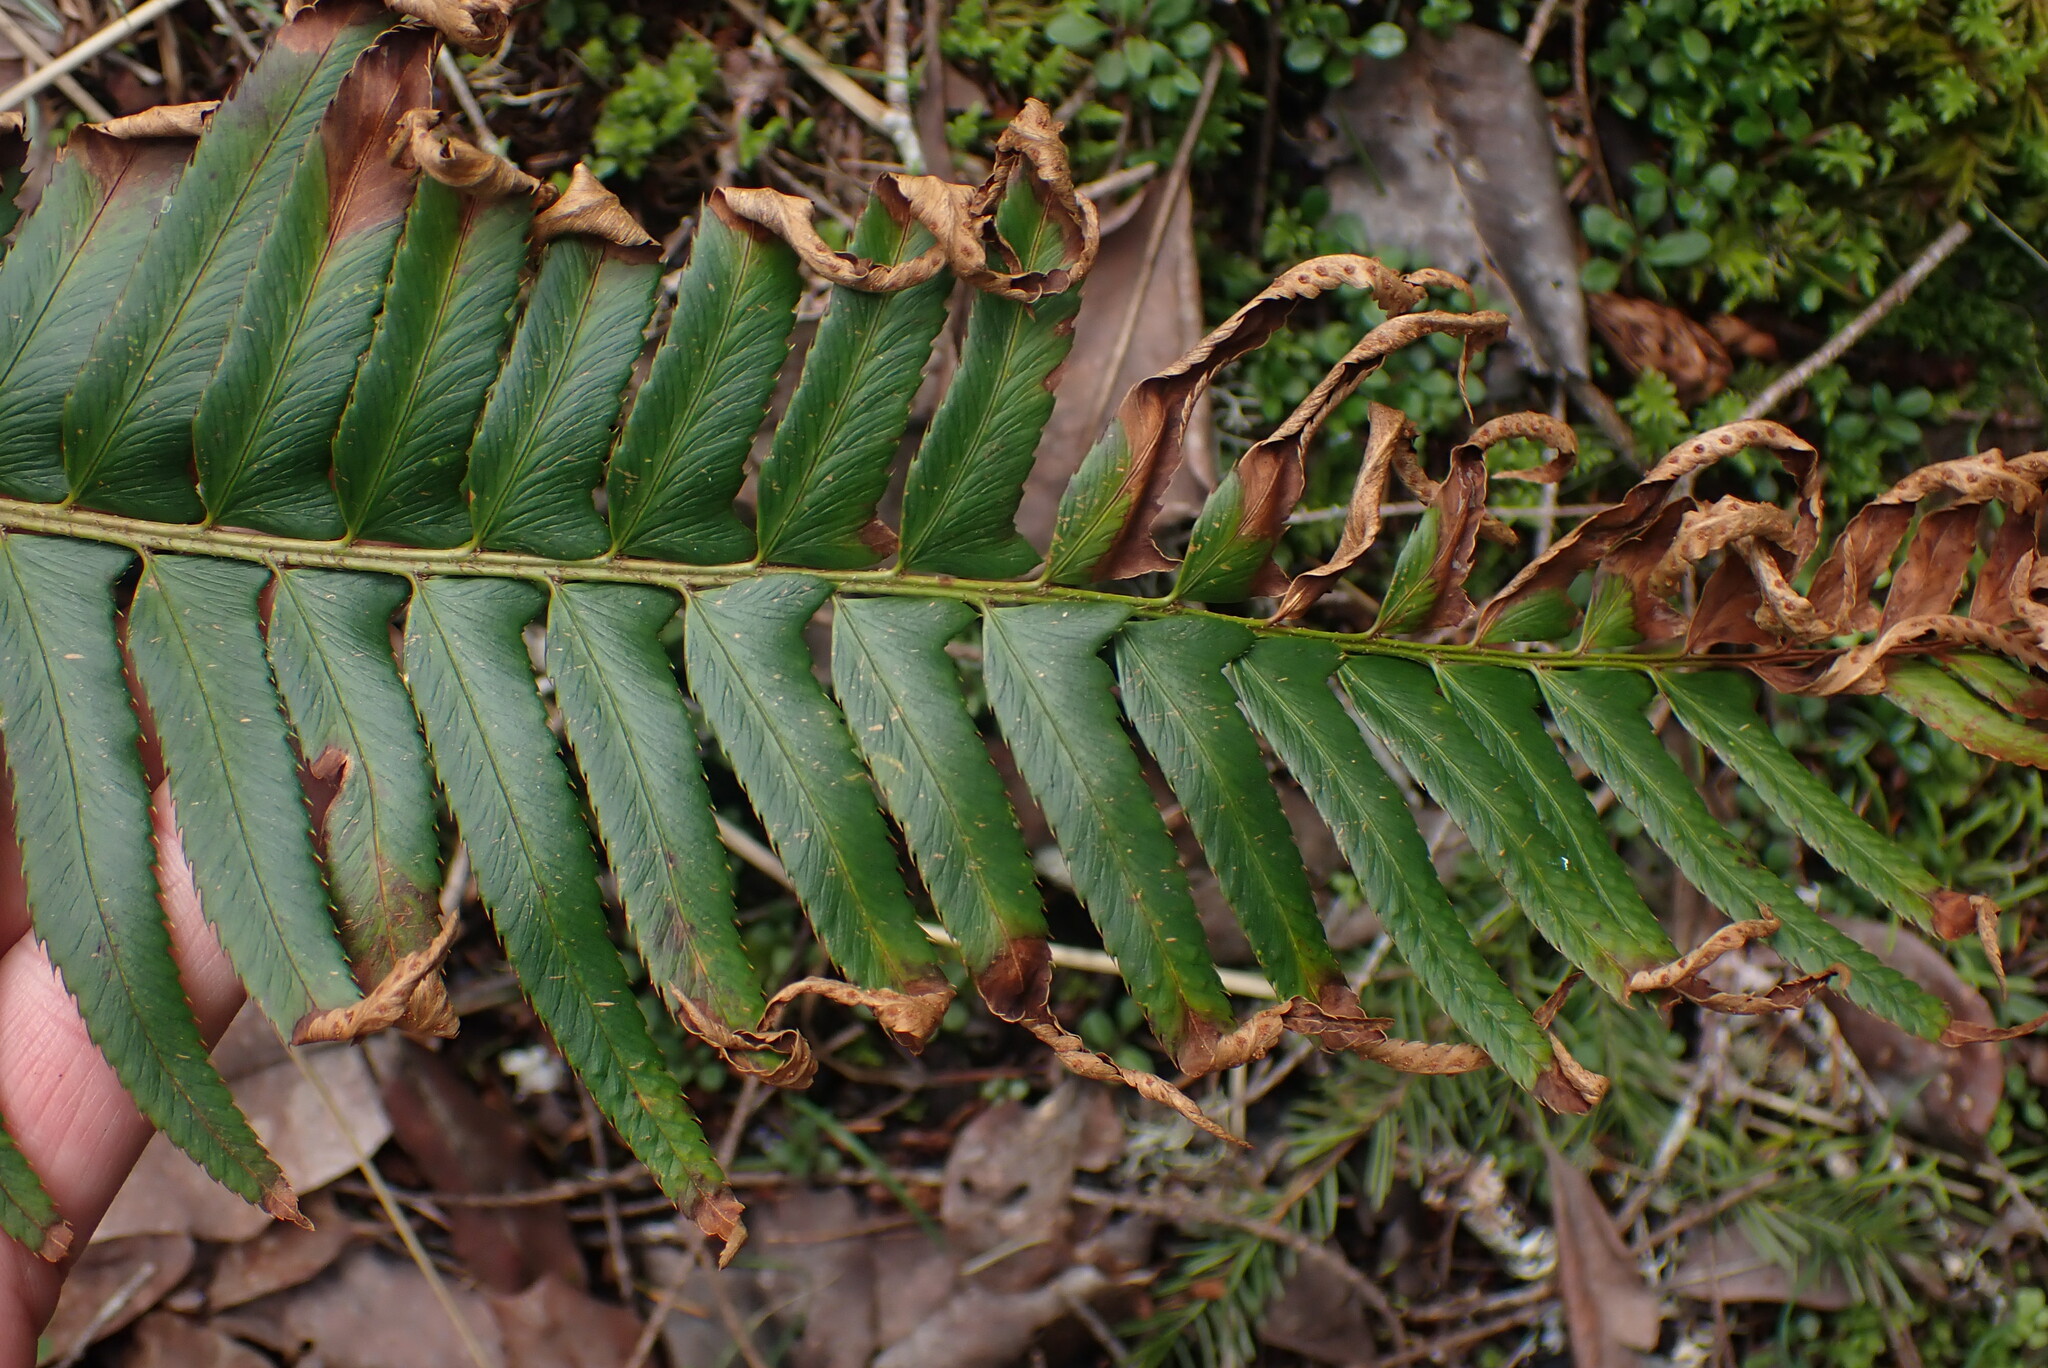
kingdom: Plantae
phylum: Tracheophyta
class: Polypodiopsida
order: Polypodiales
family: Dryopteridaceae
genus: Polystichum
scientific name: Polystichum munitum
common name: Western sword-fern
